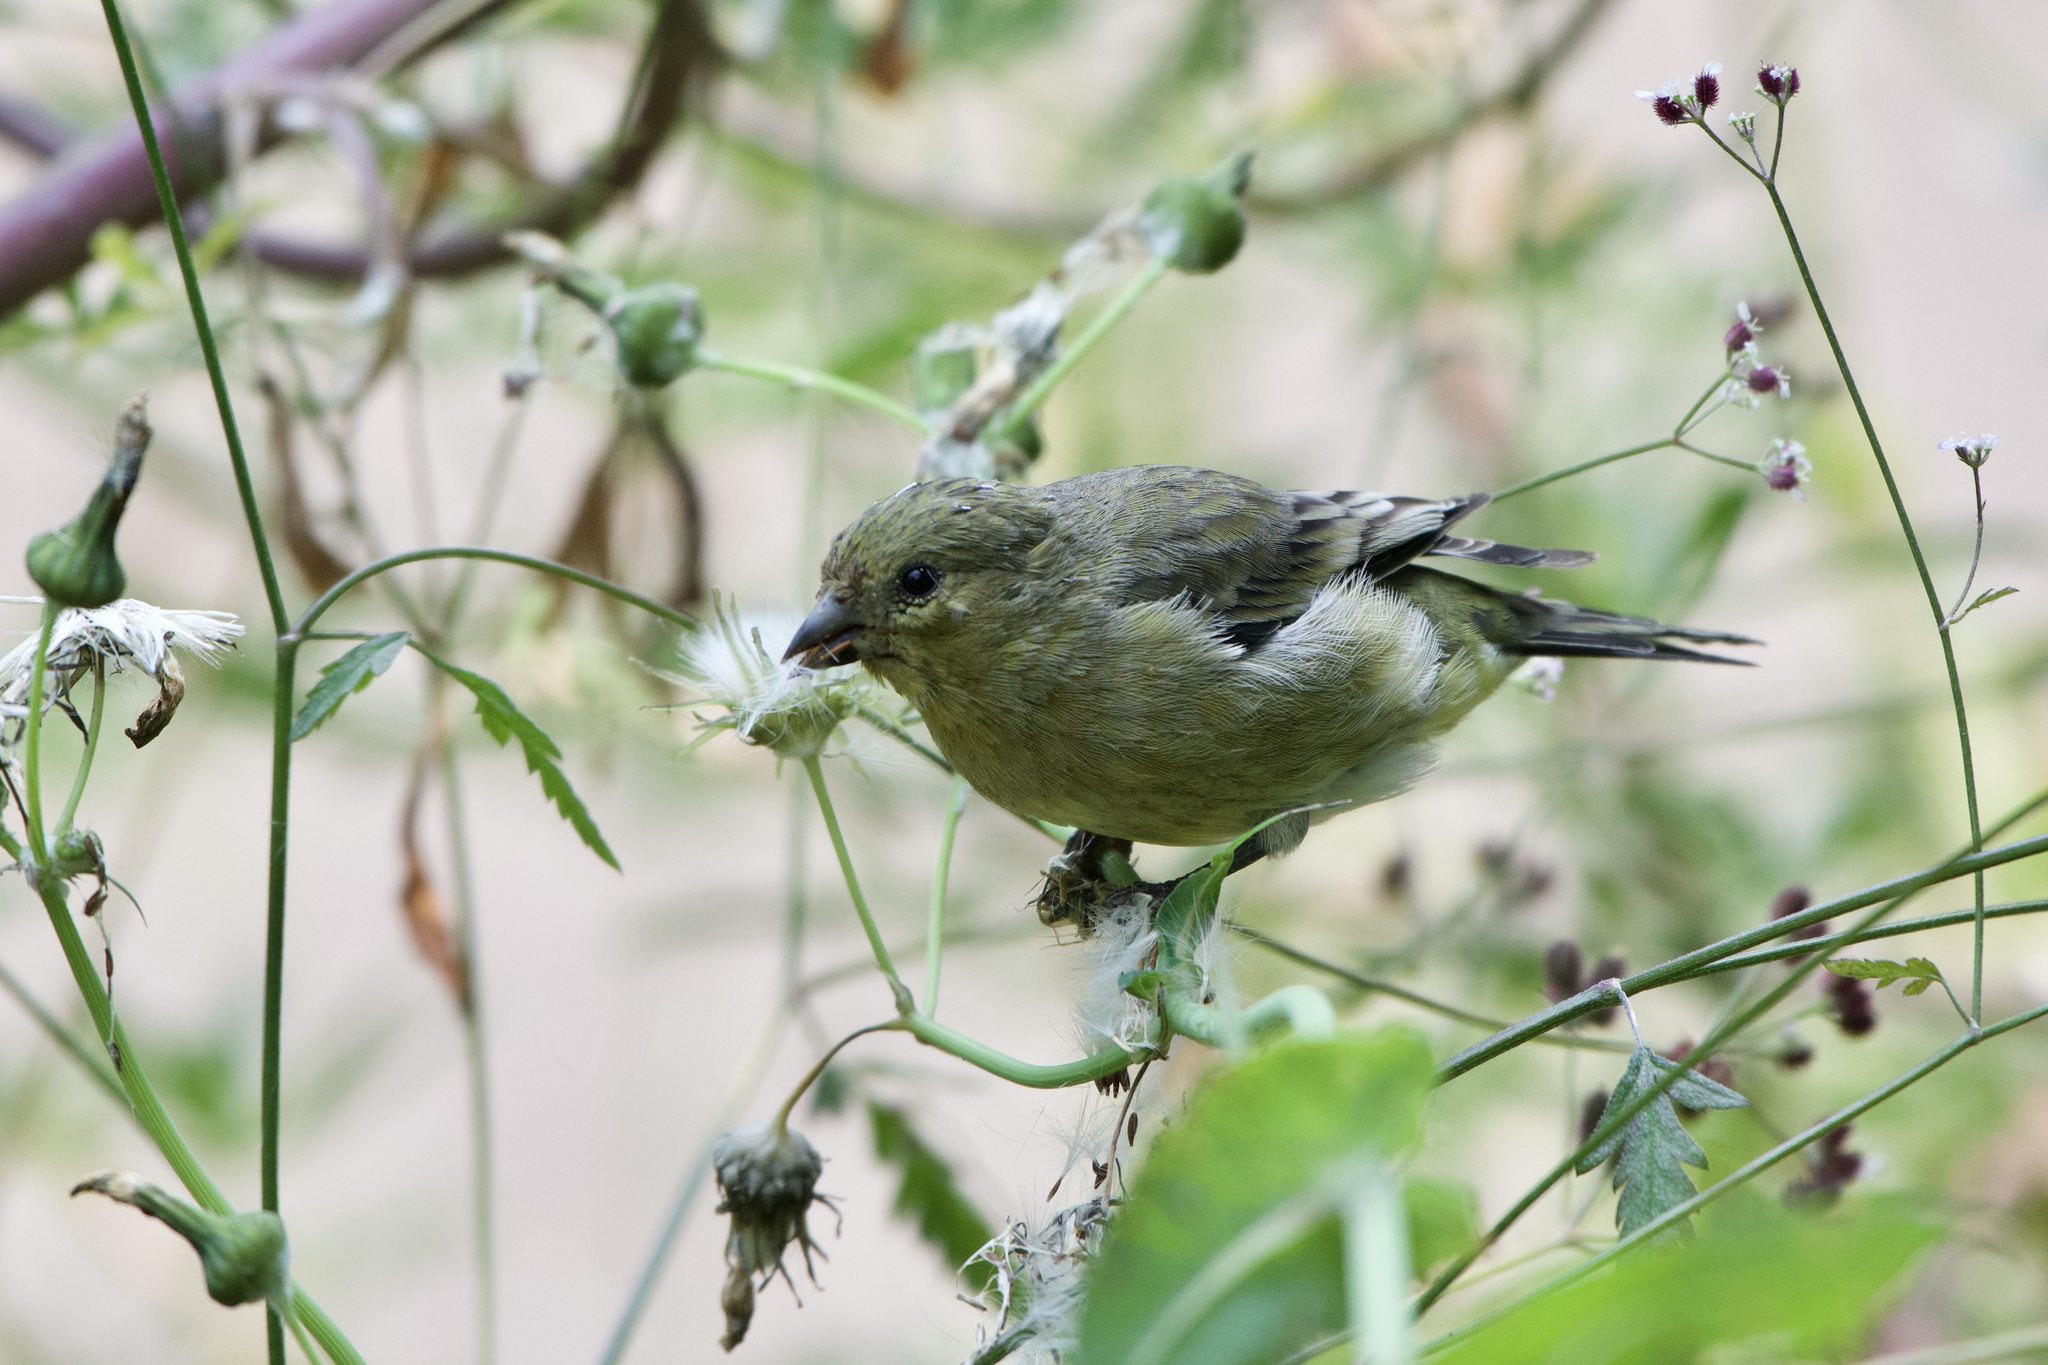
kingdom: Animalia
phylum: Chordata
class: Aves
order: Passeriformes
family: Fringillidae
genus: Spinus
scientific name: Spinus psaltria
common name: Lesser goldfinch
